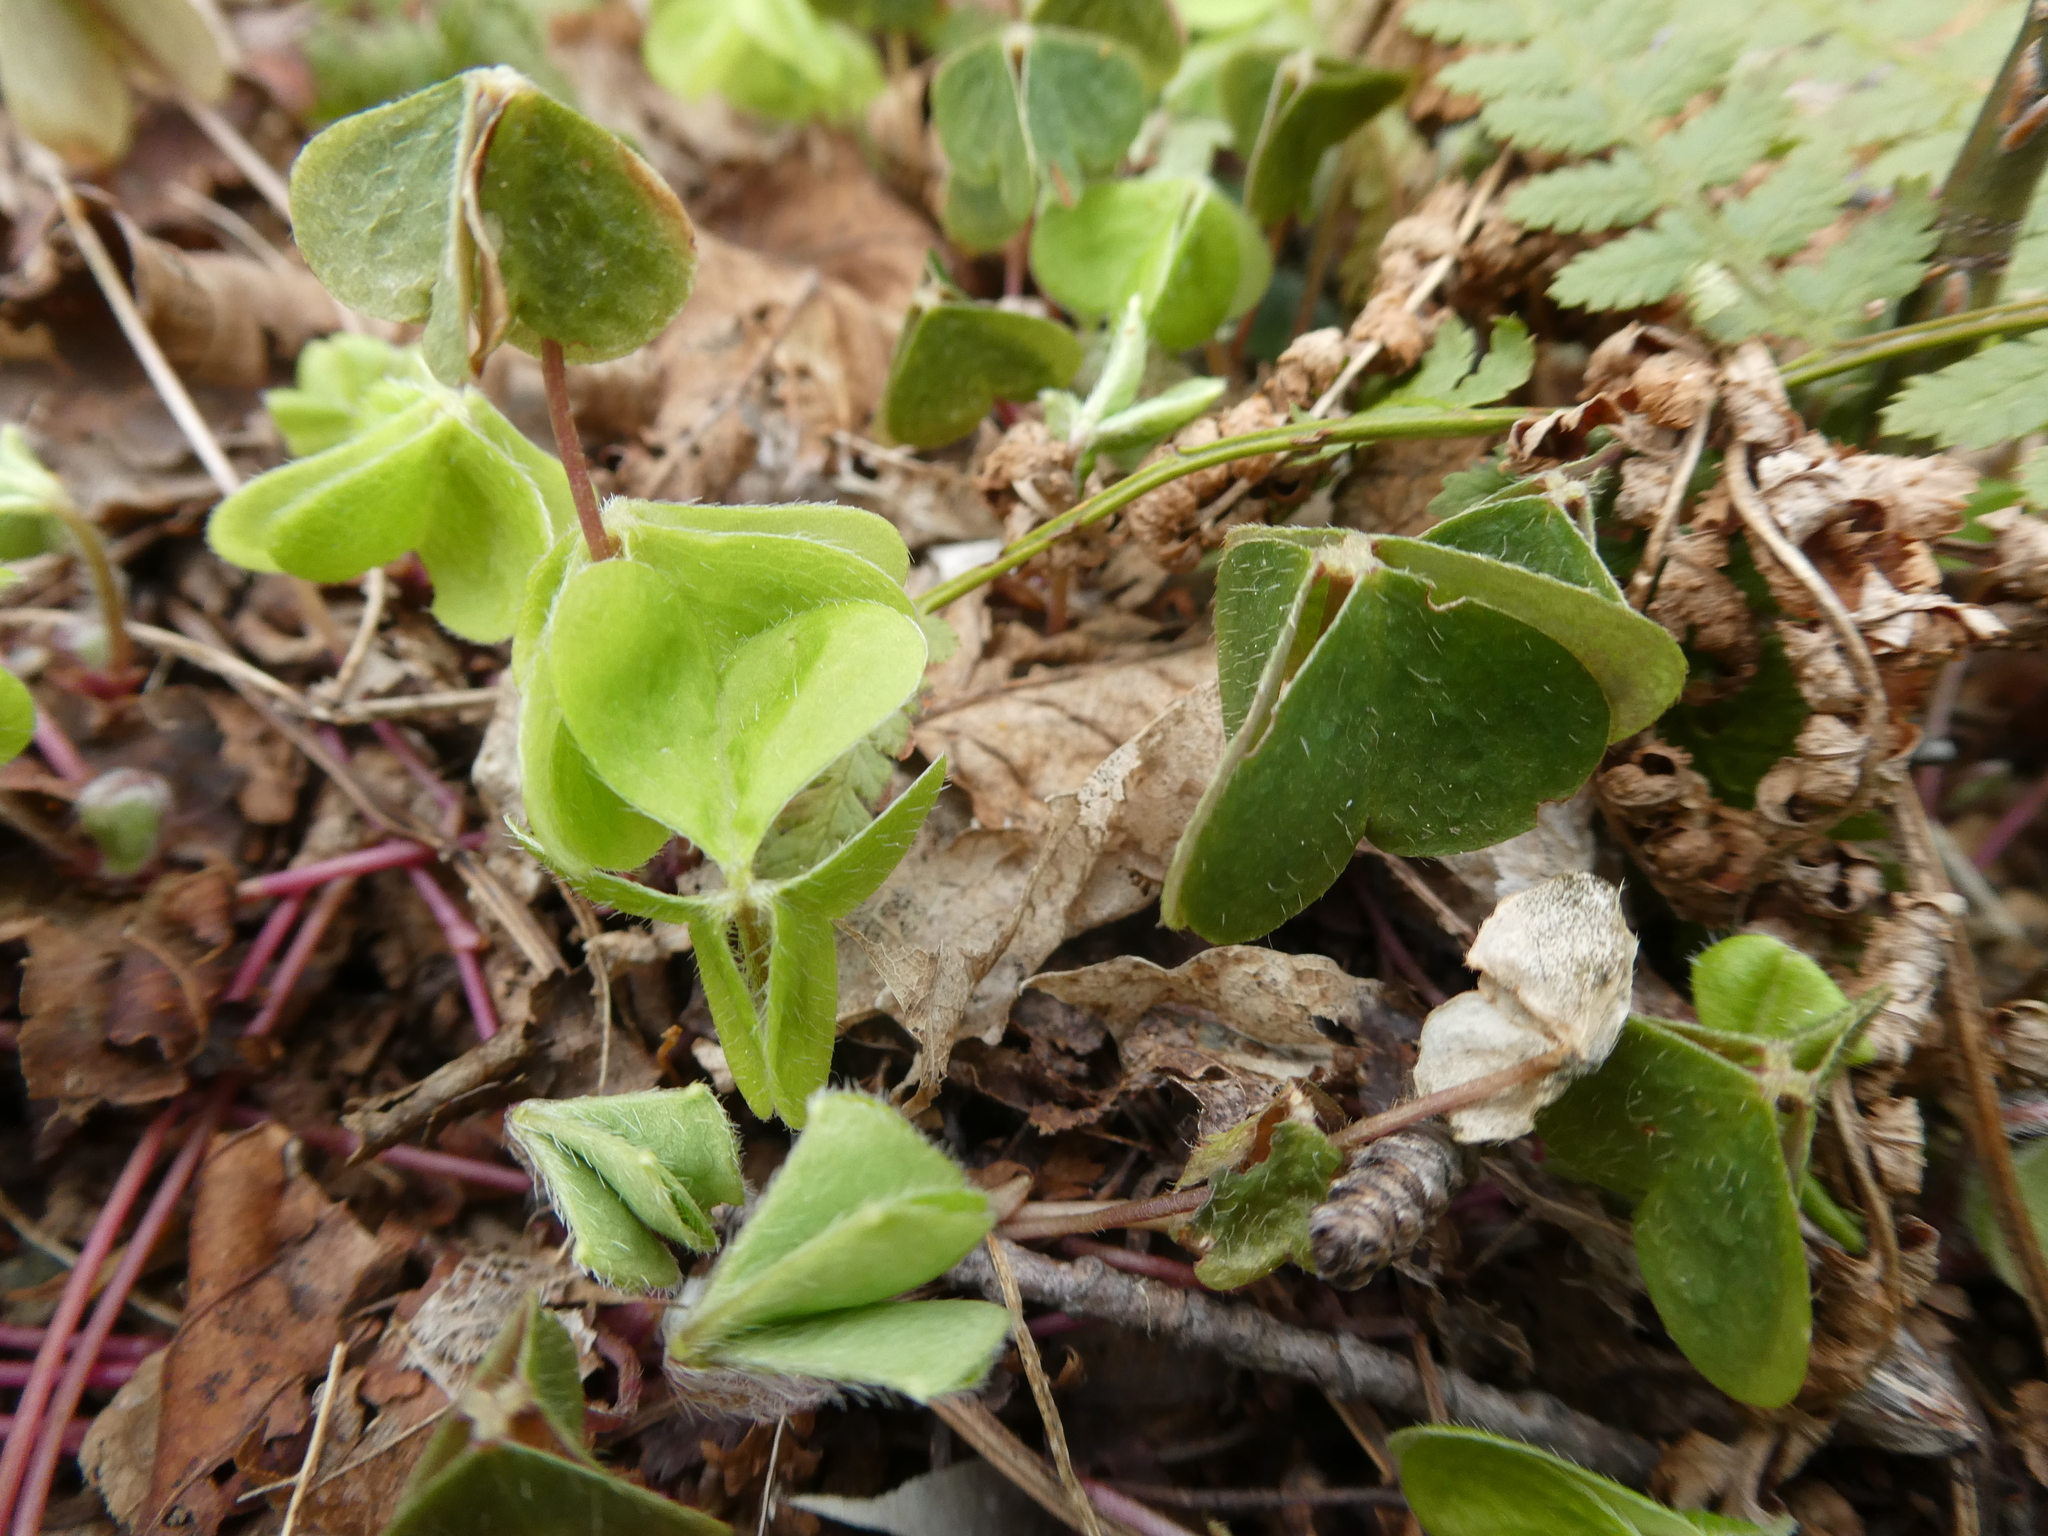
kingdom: Plantae
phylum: Tracheophyta
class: Magnoliopsida
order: Oxalidales
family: Oxalidaceae
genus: Oxalis
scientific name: Oxalis montana
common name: American wood-sorrel
